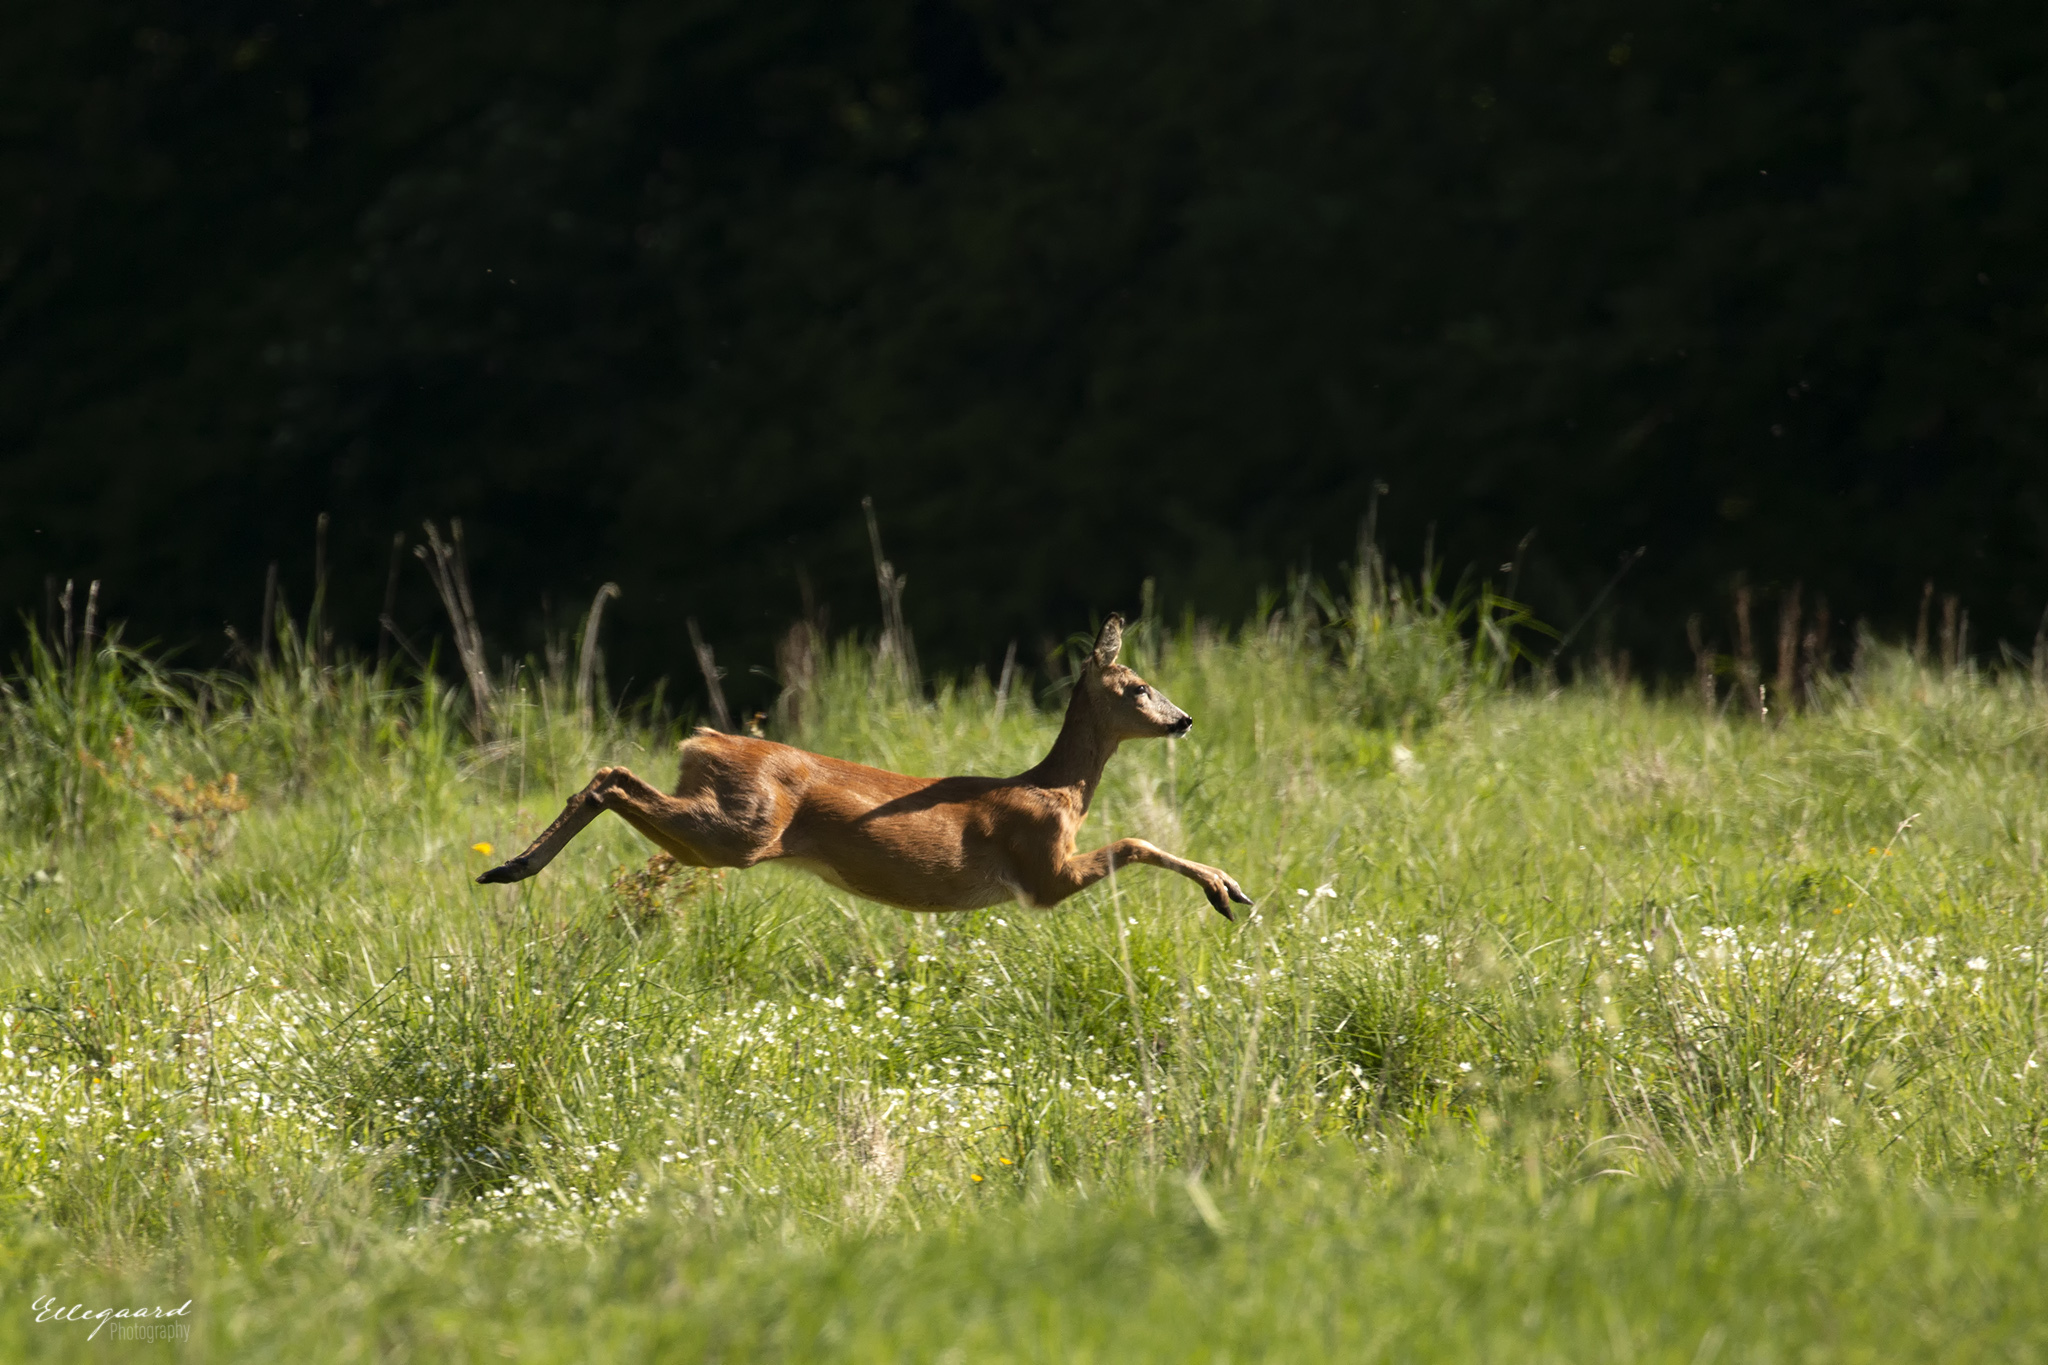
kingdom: Animalia
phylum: Chordata
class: Mammalia
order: Artiodactyla
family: Cervidae
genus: Capreolus
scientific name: Capreolus capreolus
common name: Western roe deer
